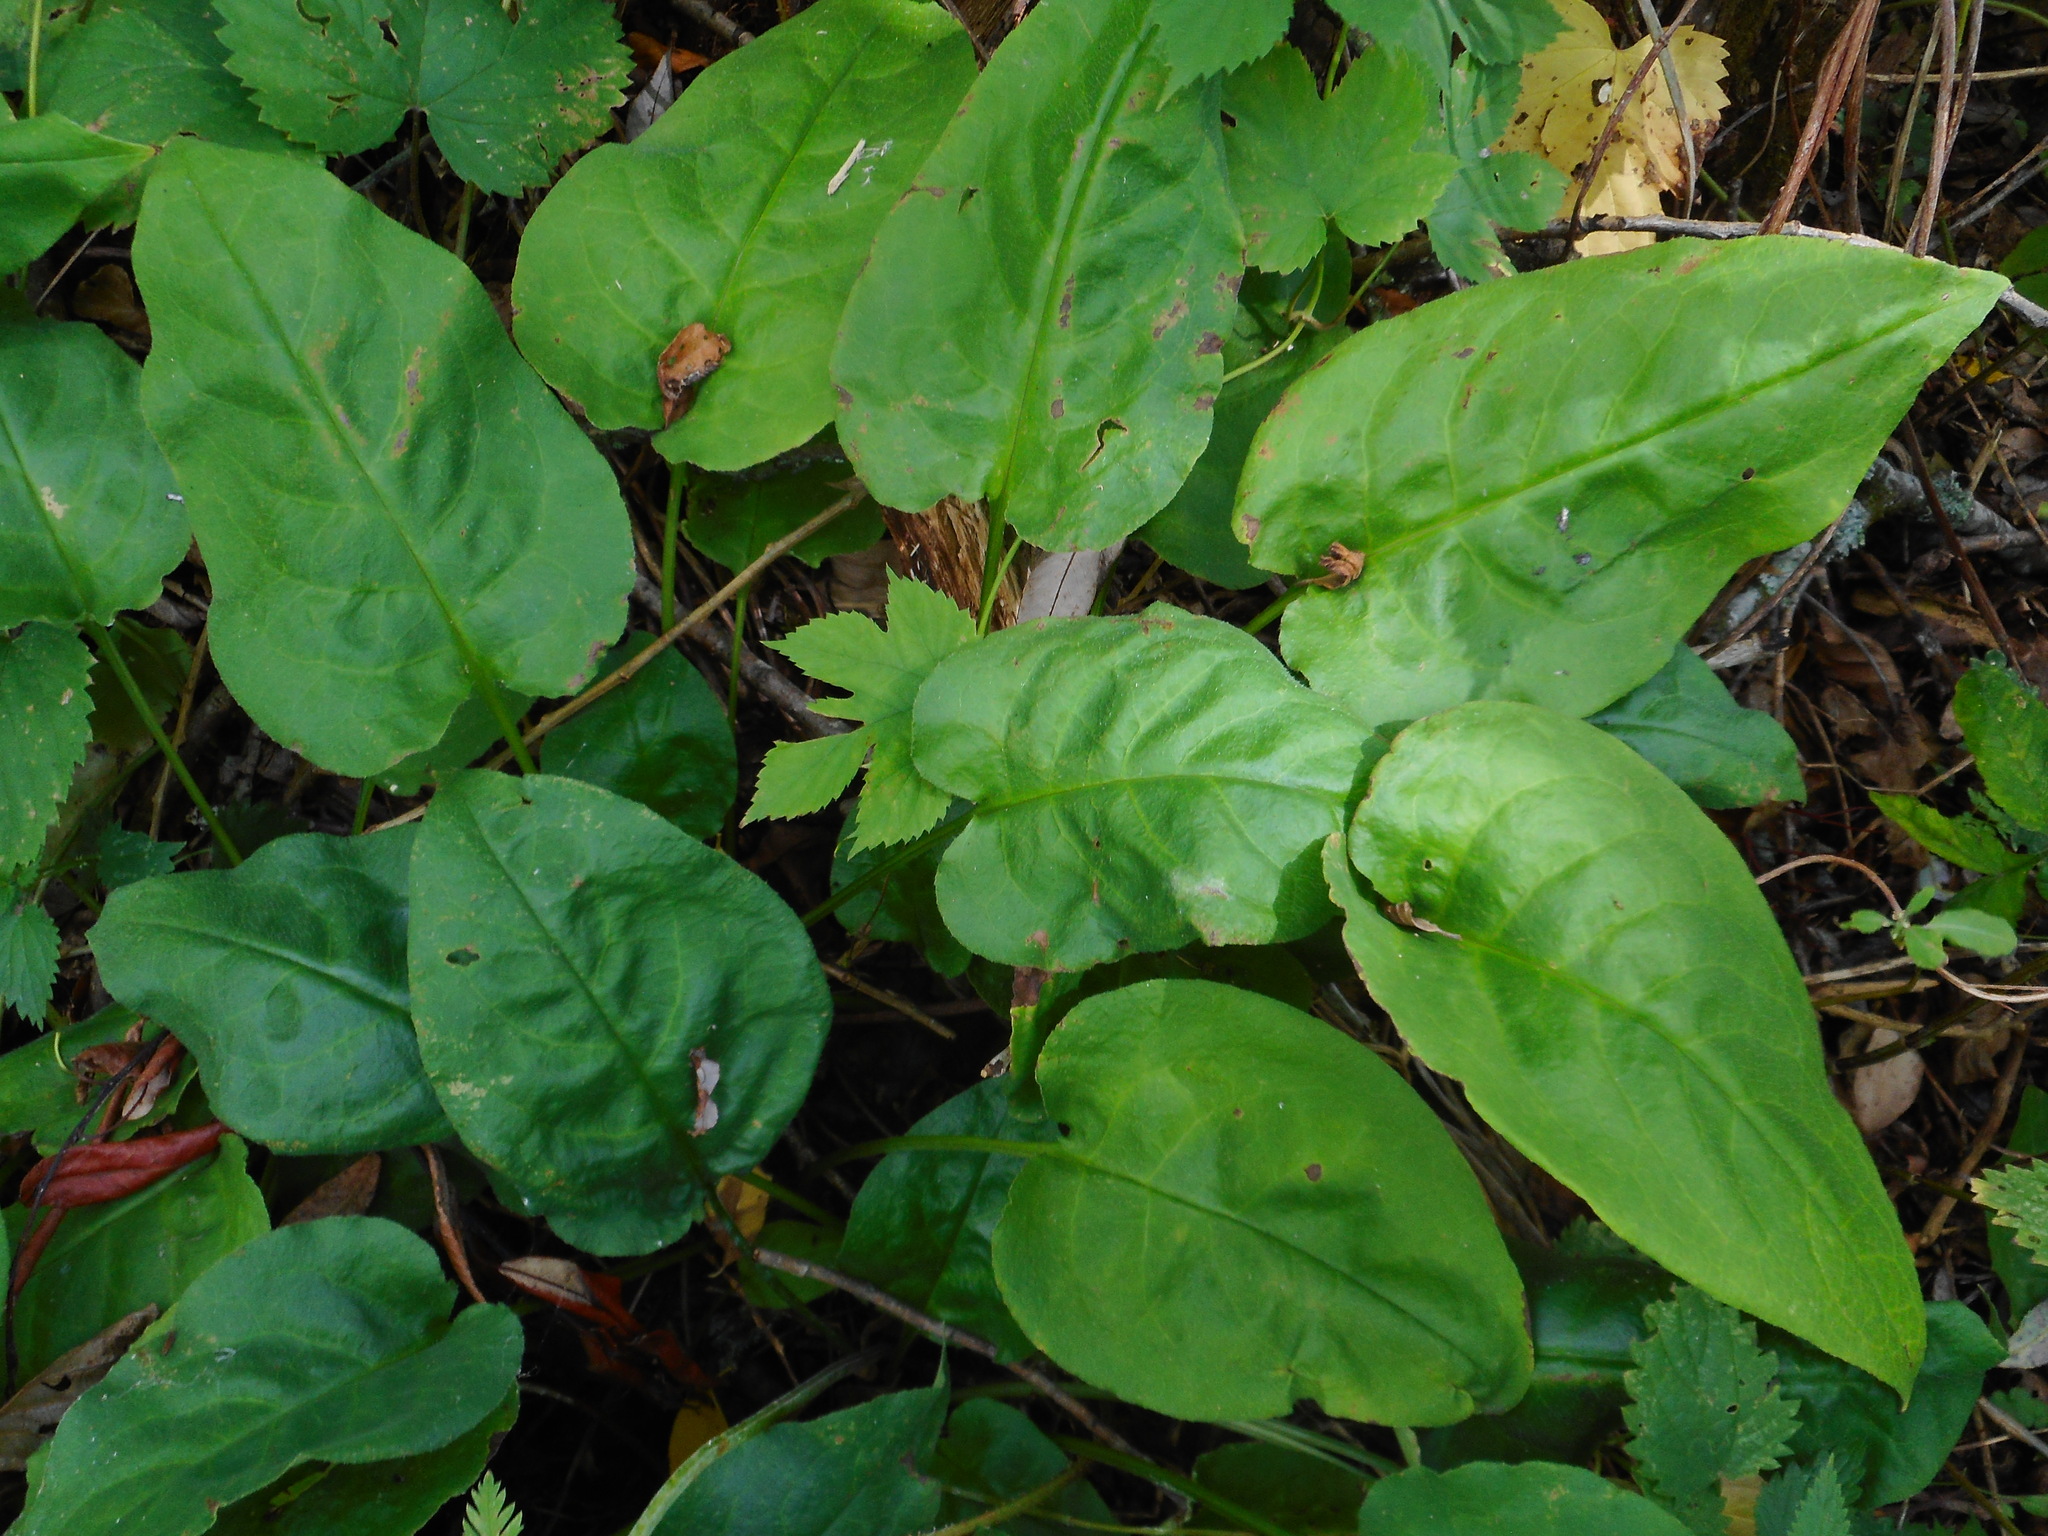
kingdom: Plantae
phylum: Tracheophyta
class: Magnoliopsida
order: Boraginales
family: Boraginaceae
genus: Pulmonaria
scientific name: Pulmonaria obscura
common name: Suffolk lungwort
